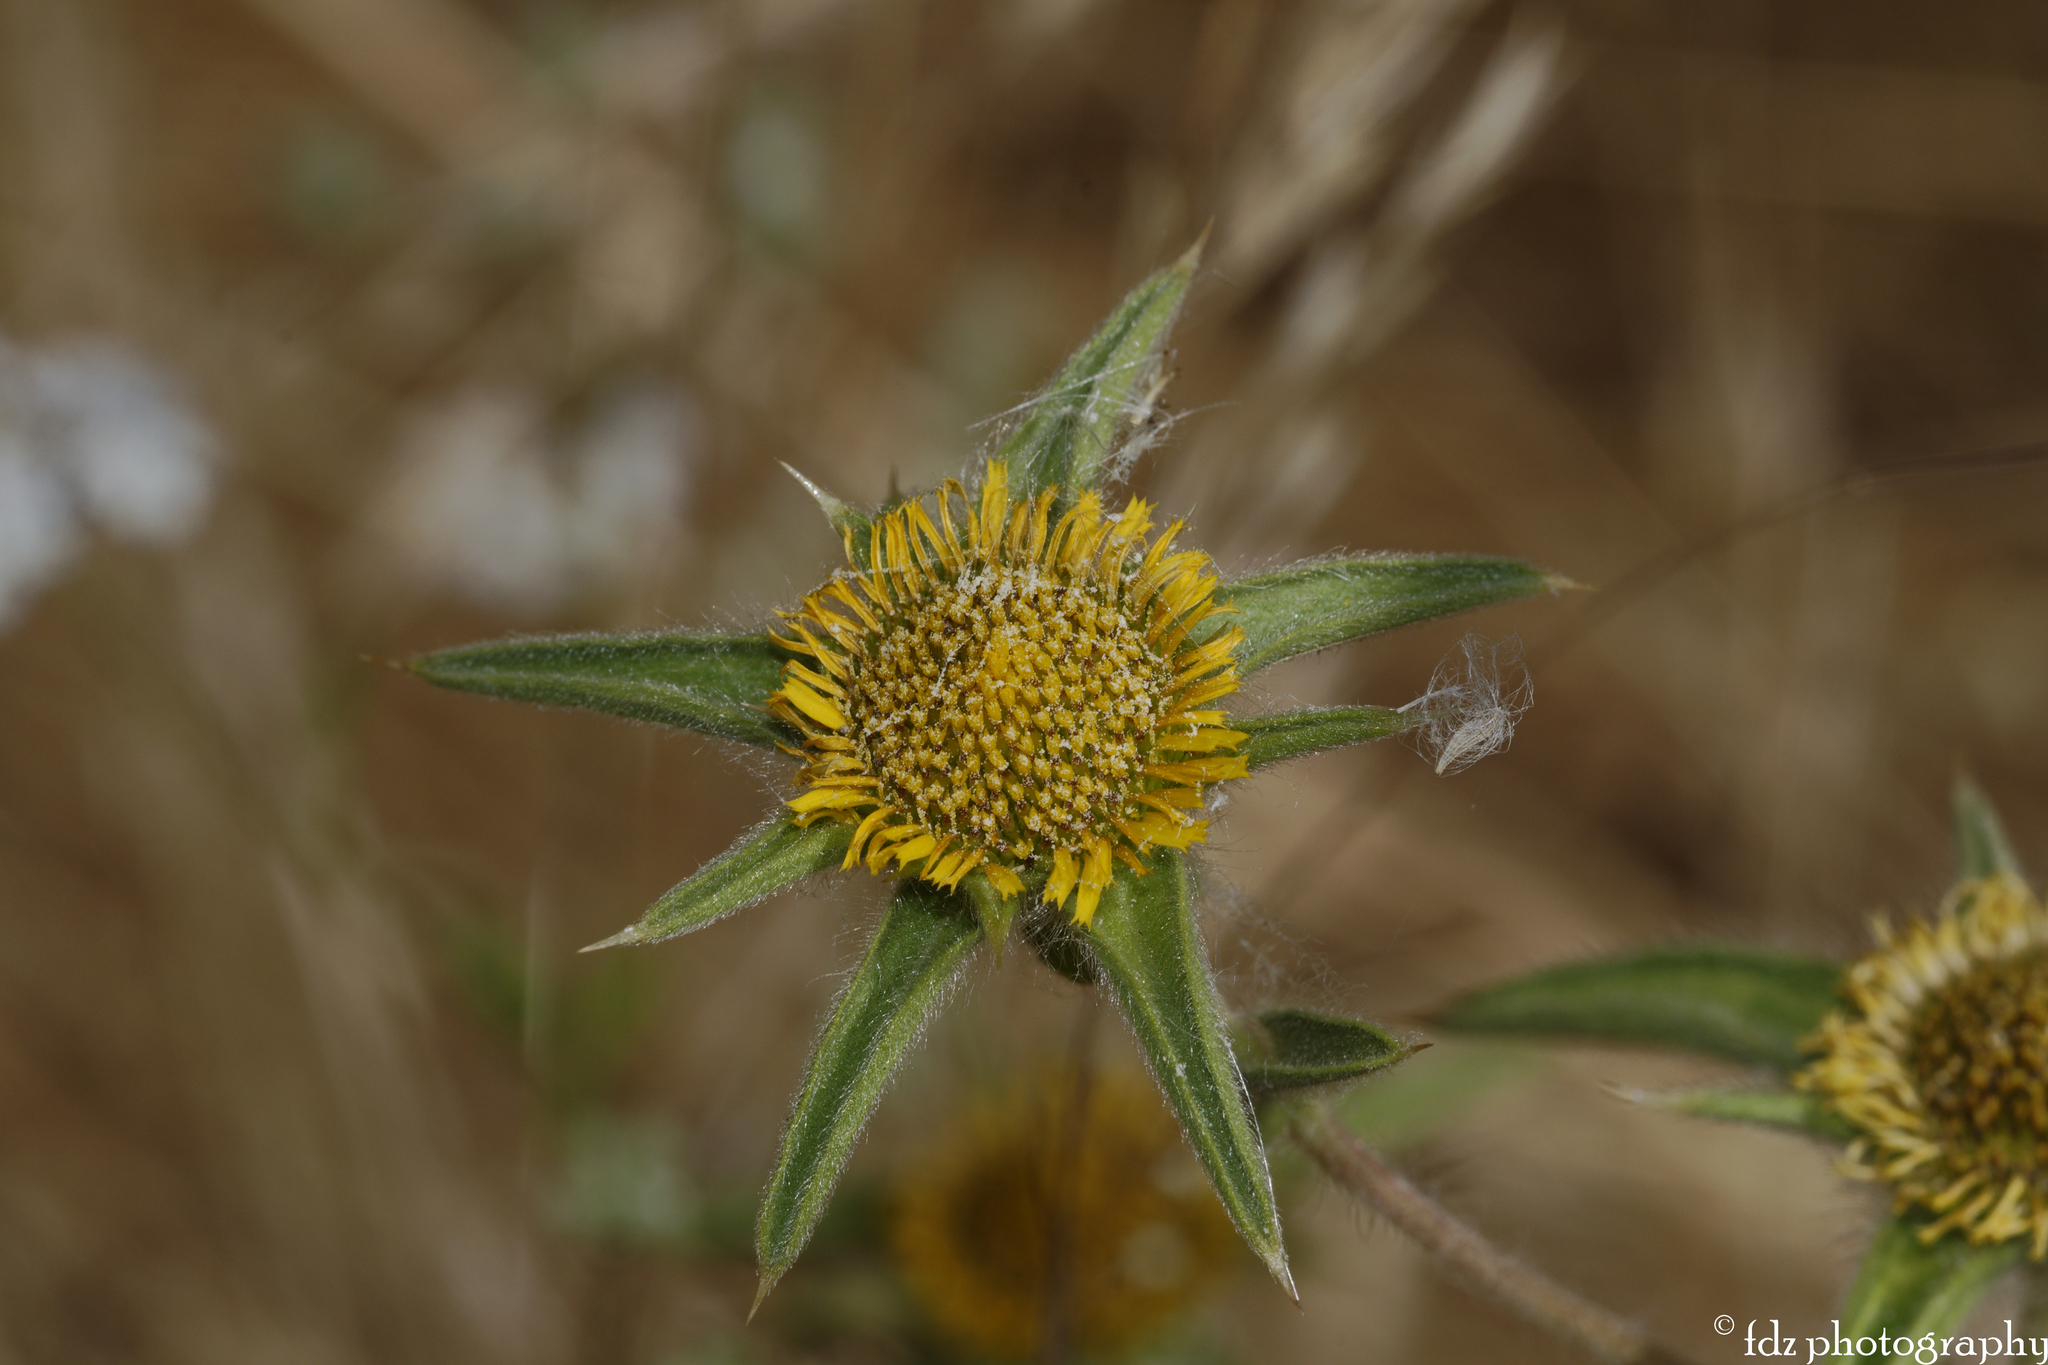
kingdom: Plantae
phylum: Tracheophyta
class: Magnoliopsida
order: Asterales
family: Asteraceae
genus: Pallenis
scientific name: Pallenis spinosa
